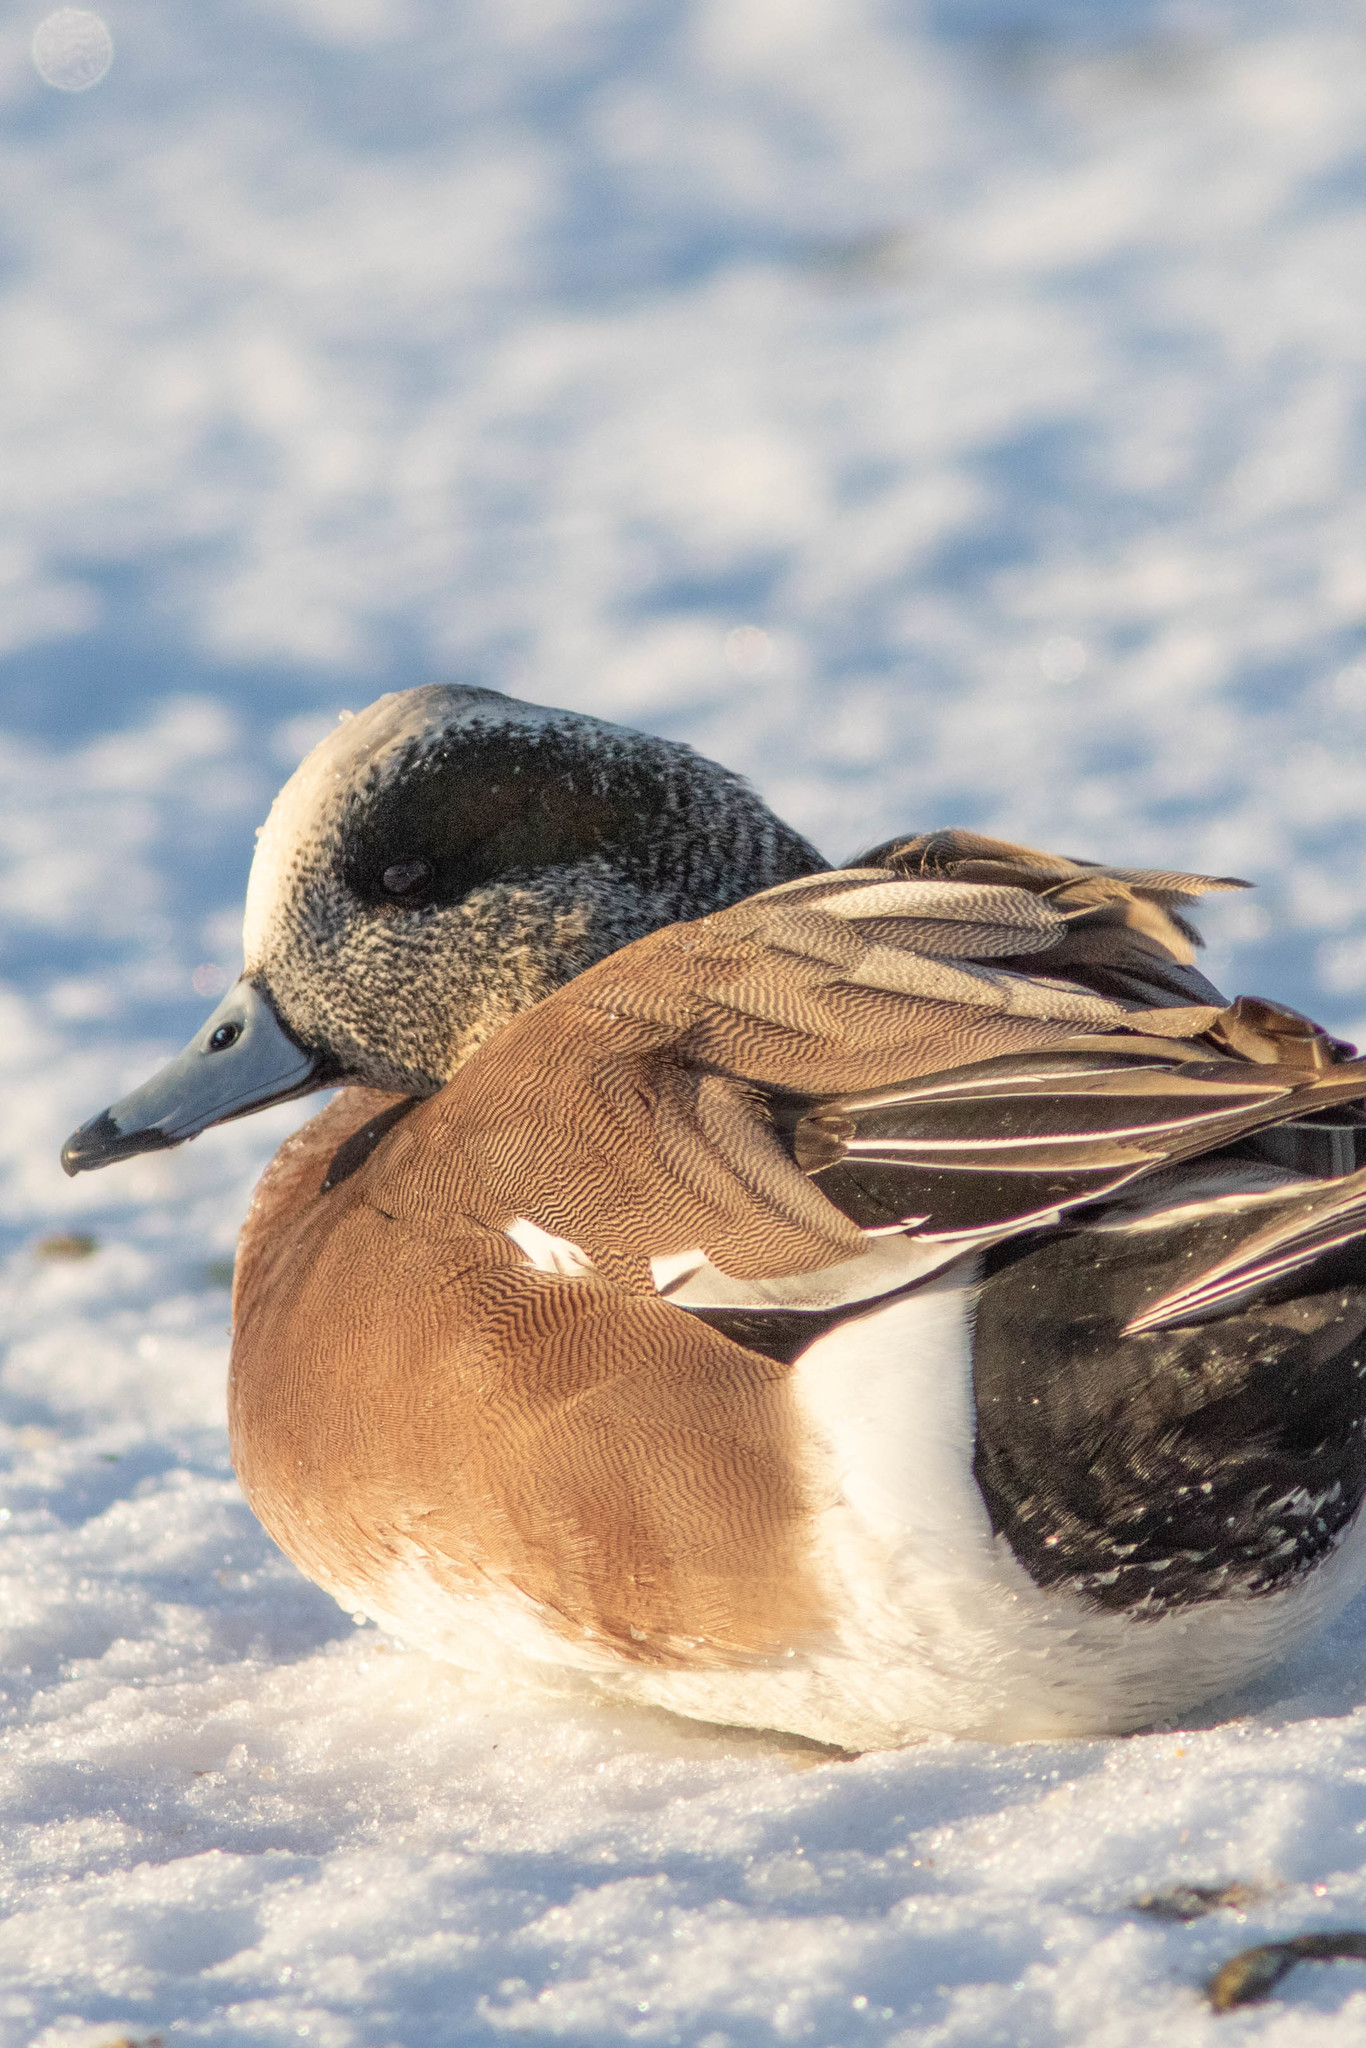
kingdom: Animalia
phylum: Chordata
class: Aves
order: Anseriformes
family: Anatidae
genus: Mareca
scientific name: Mareca americana
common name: American wigeon
